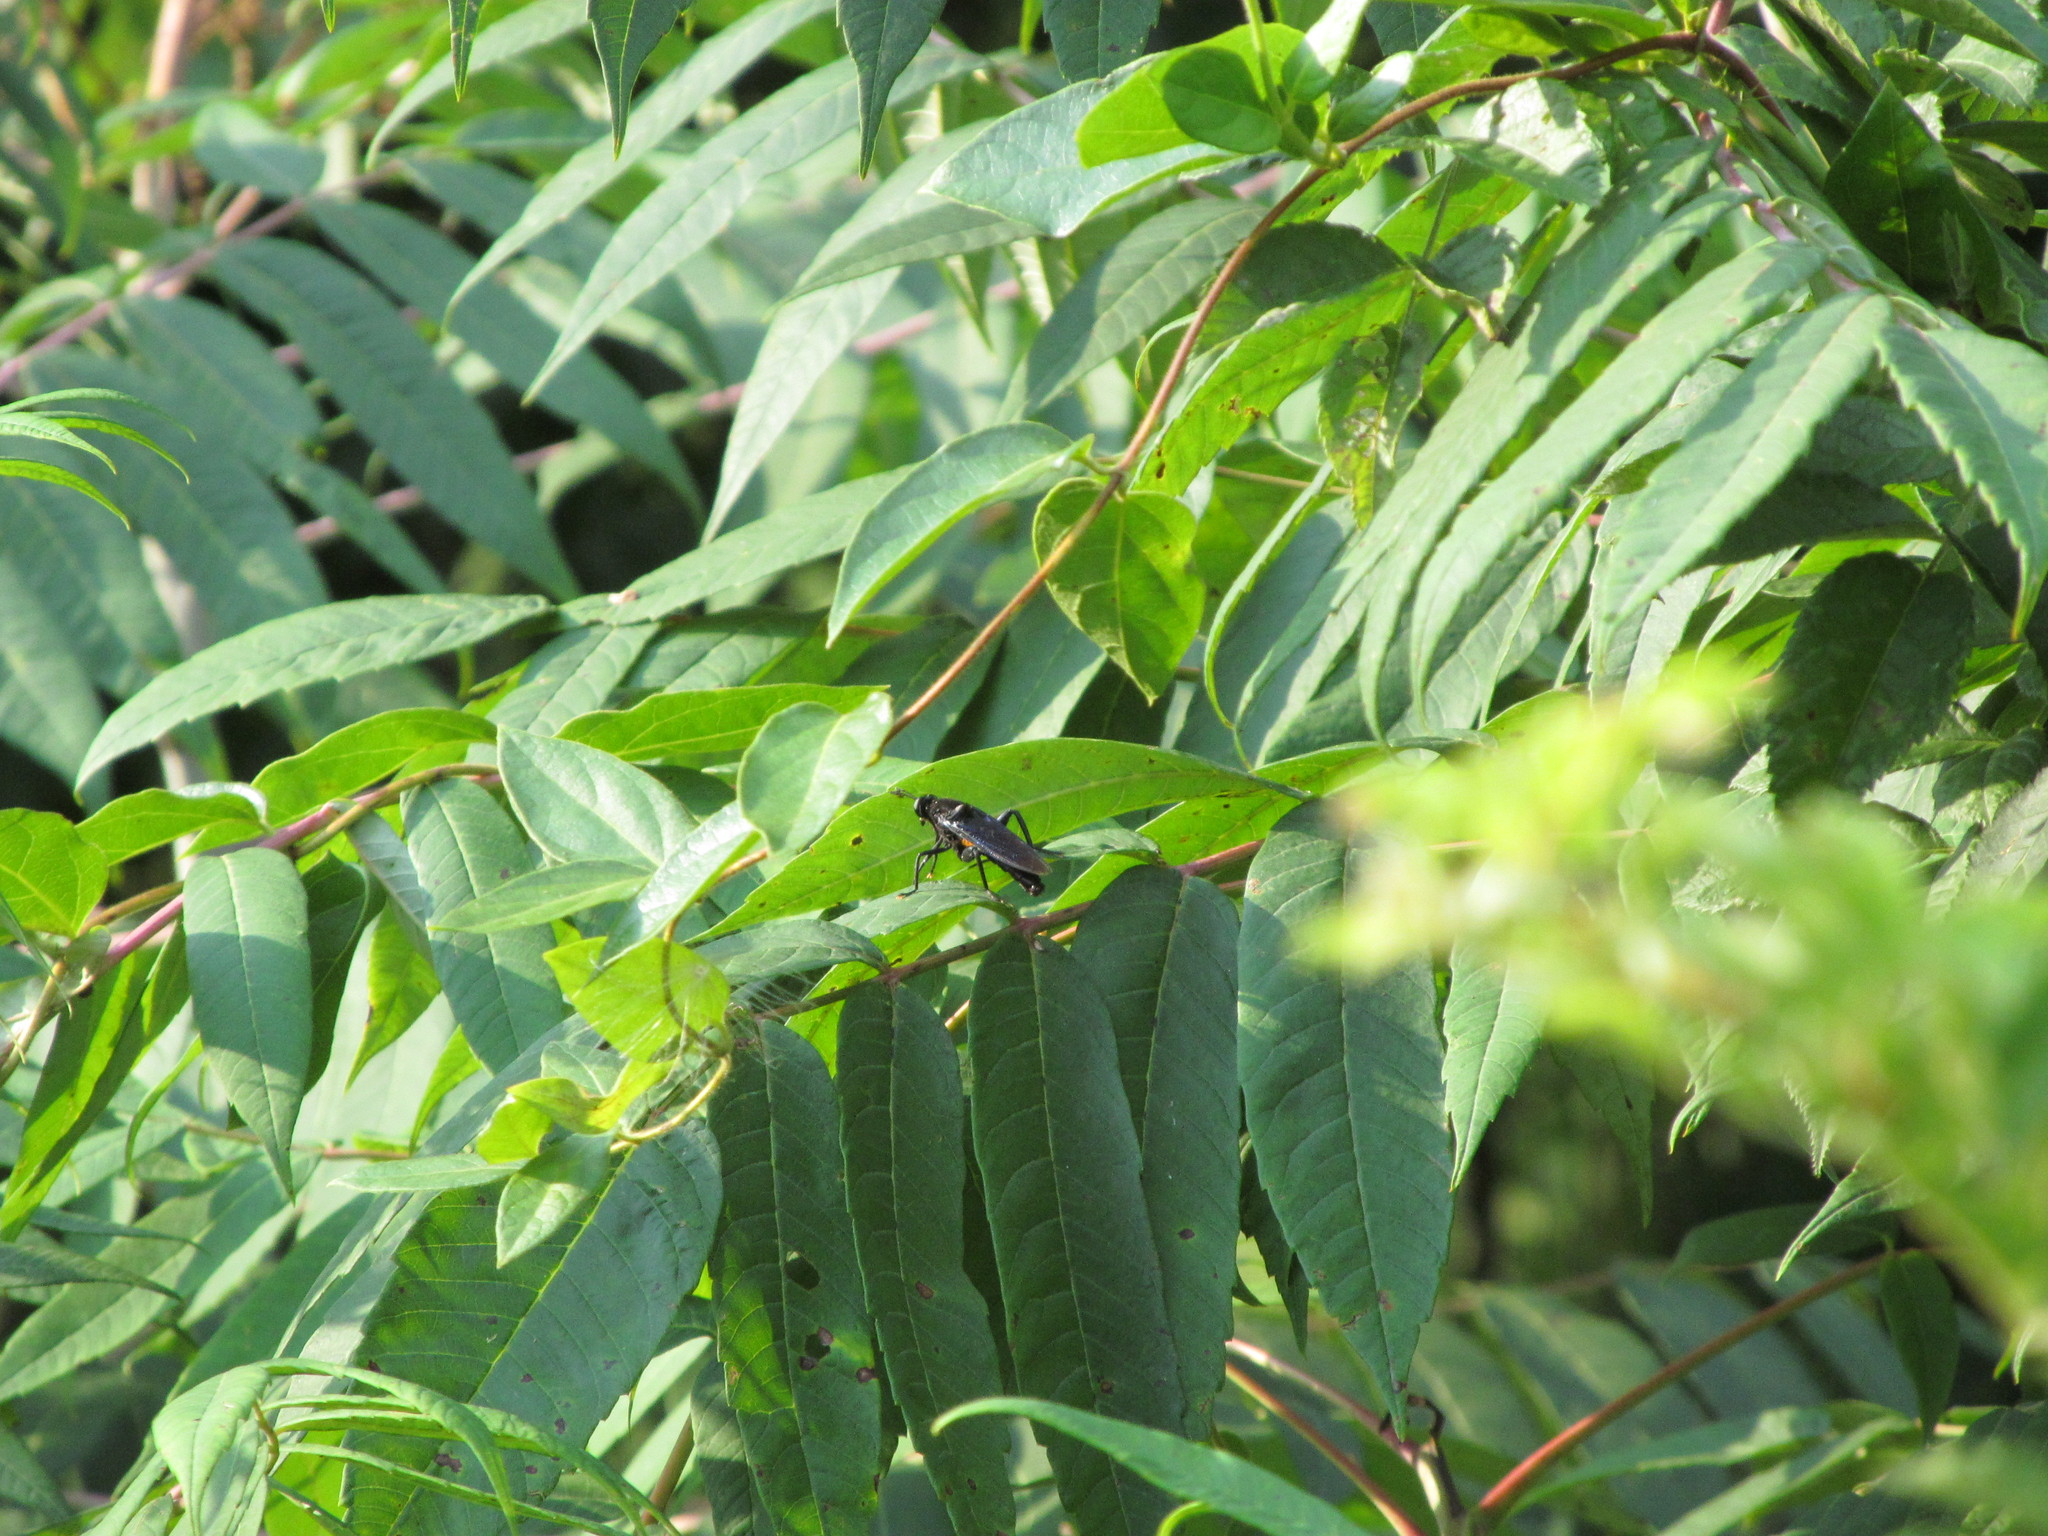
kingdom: Animalia
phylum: Arthropoda
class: Insecta
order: Diptera
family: Mydidae
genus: Mydas
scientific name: Mydas clavatus
